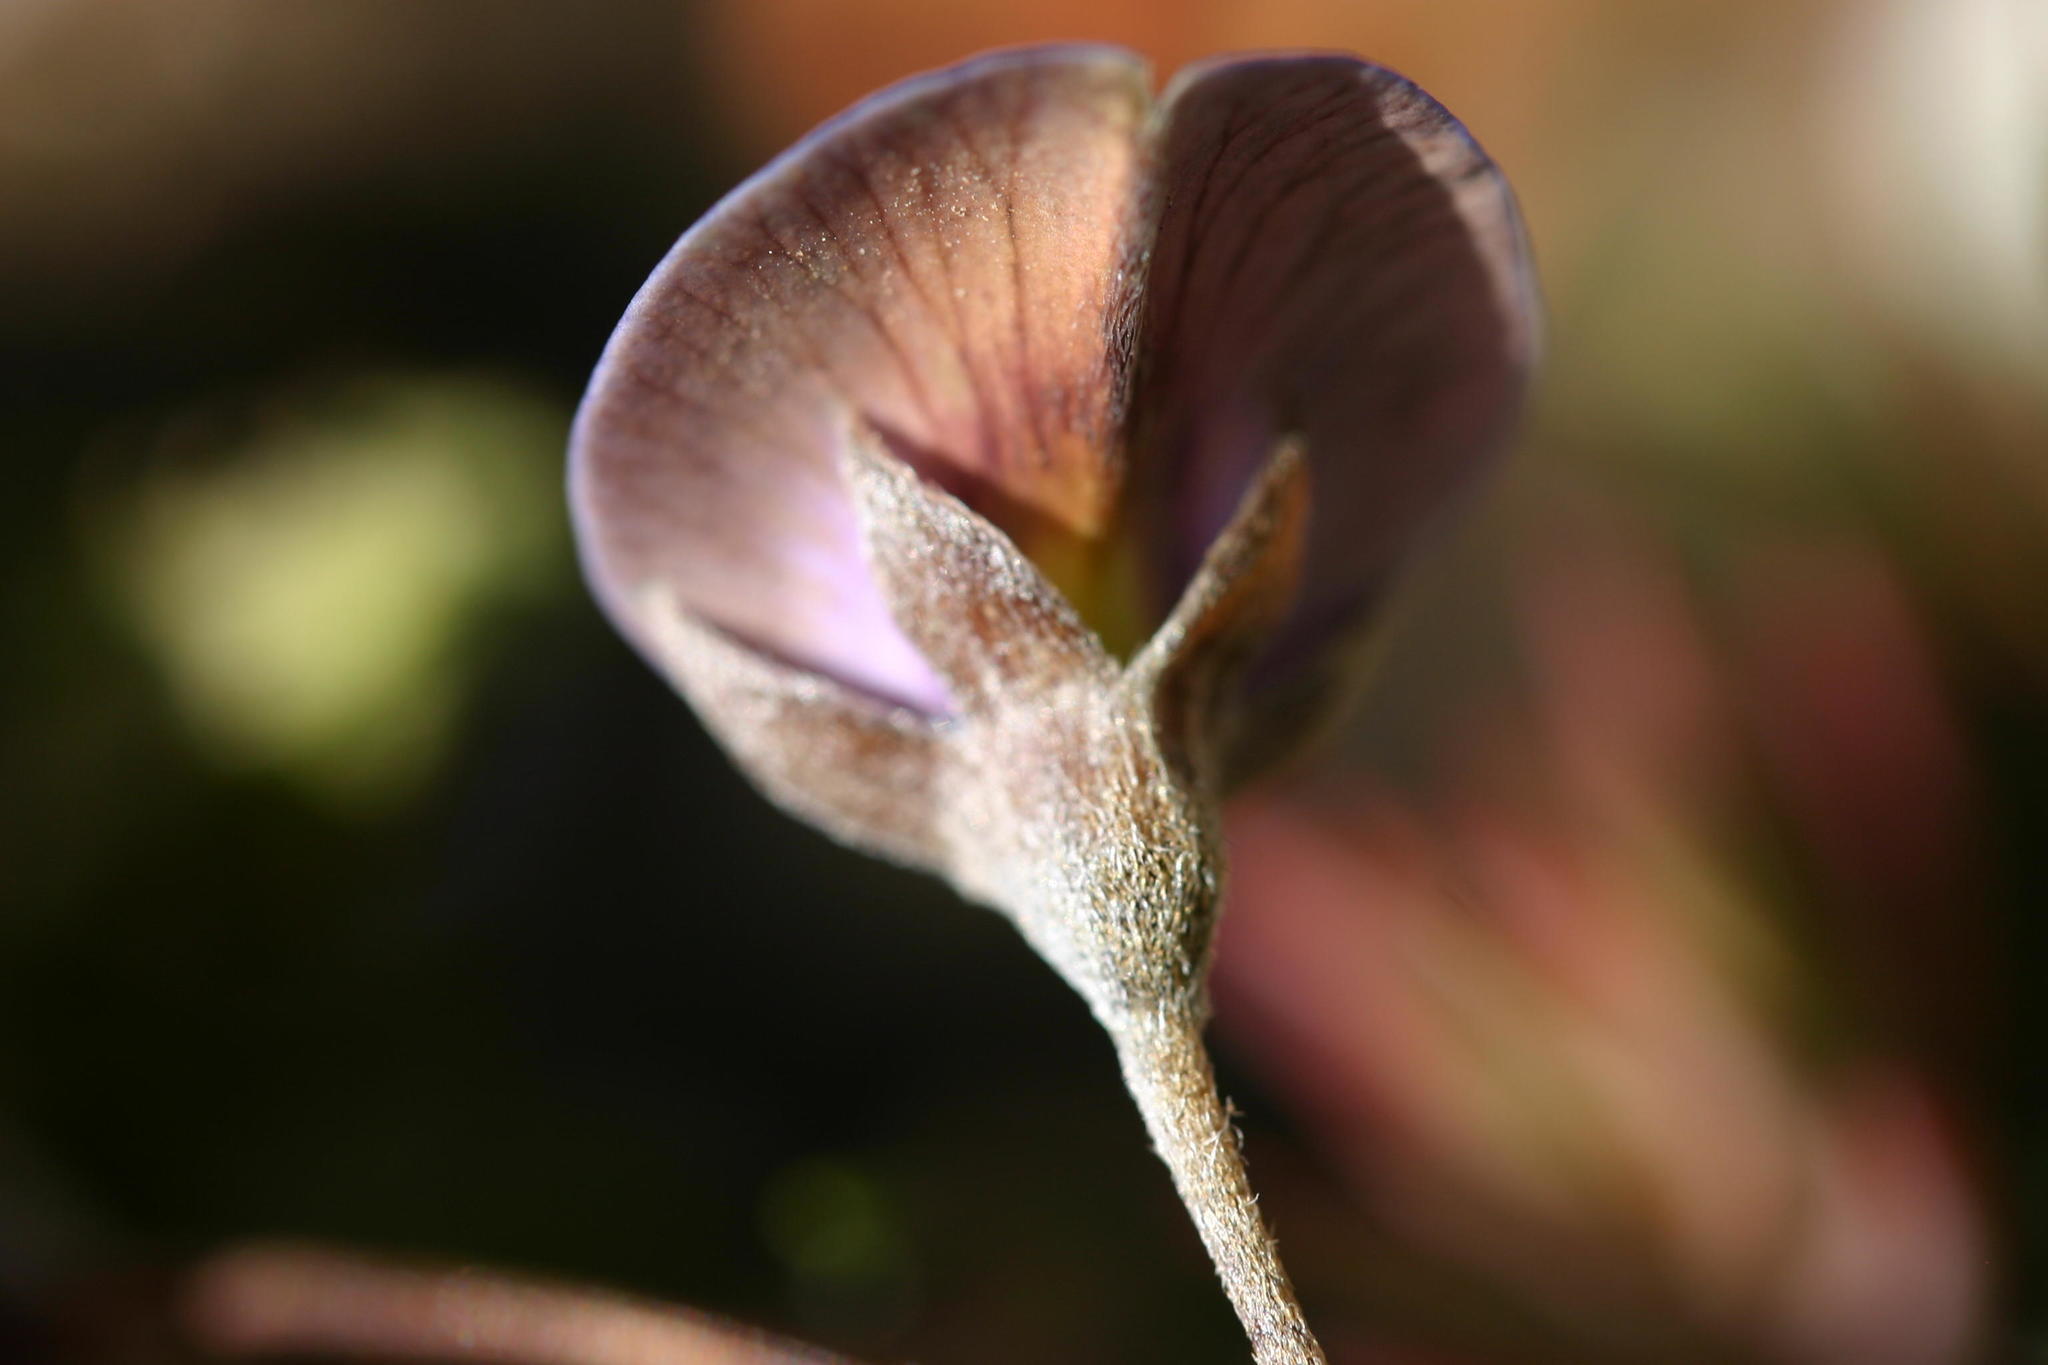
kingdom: Plantae
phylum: Tracheophyta
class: Magnoliopsida
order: Fabales
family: Fabaceae
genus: Lotononis
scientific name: Lotononis argentea
